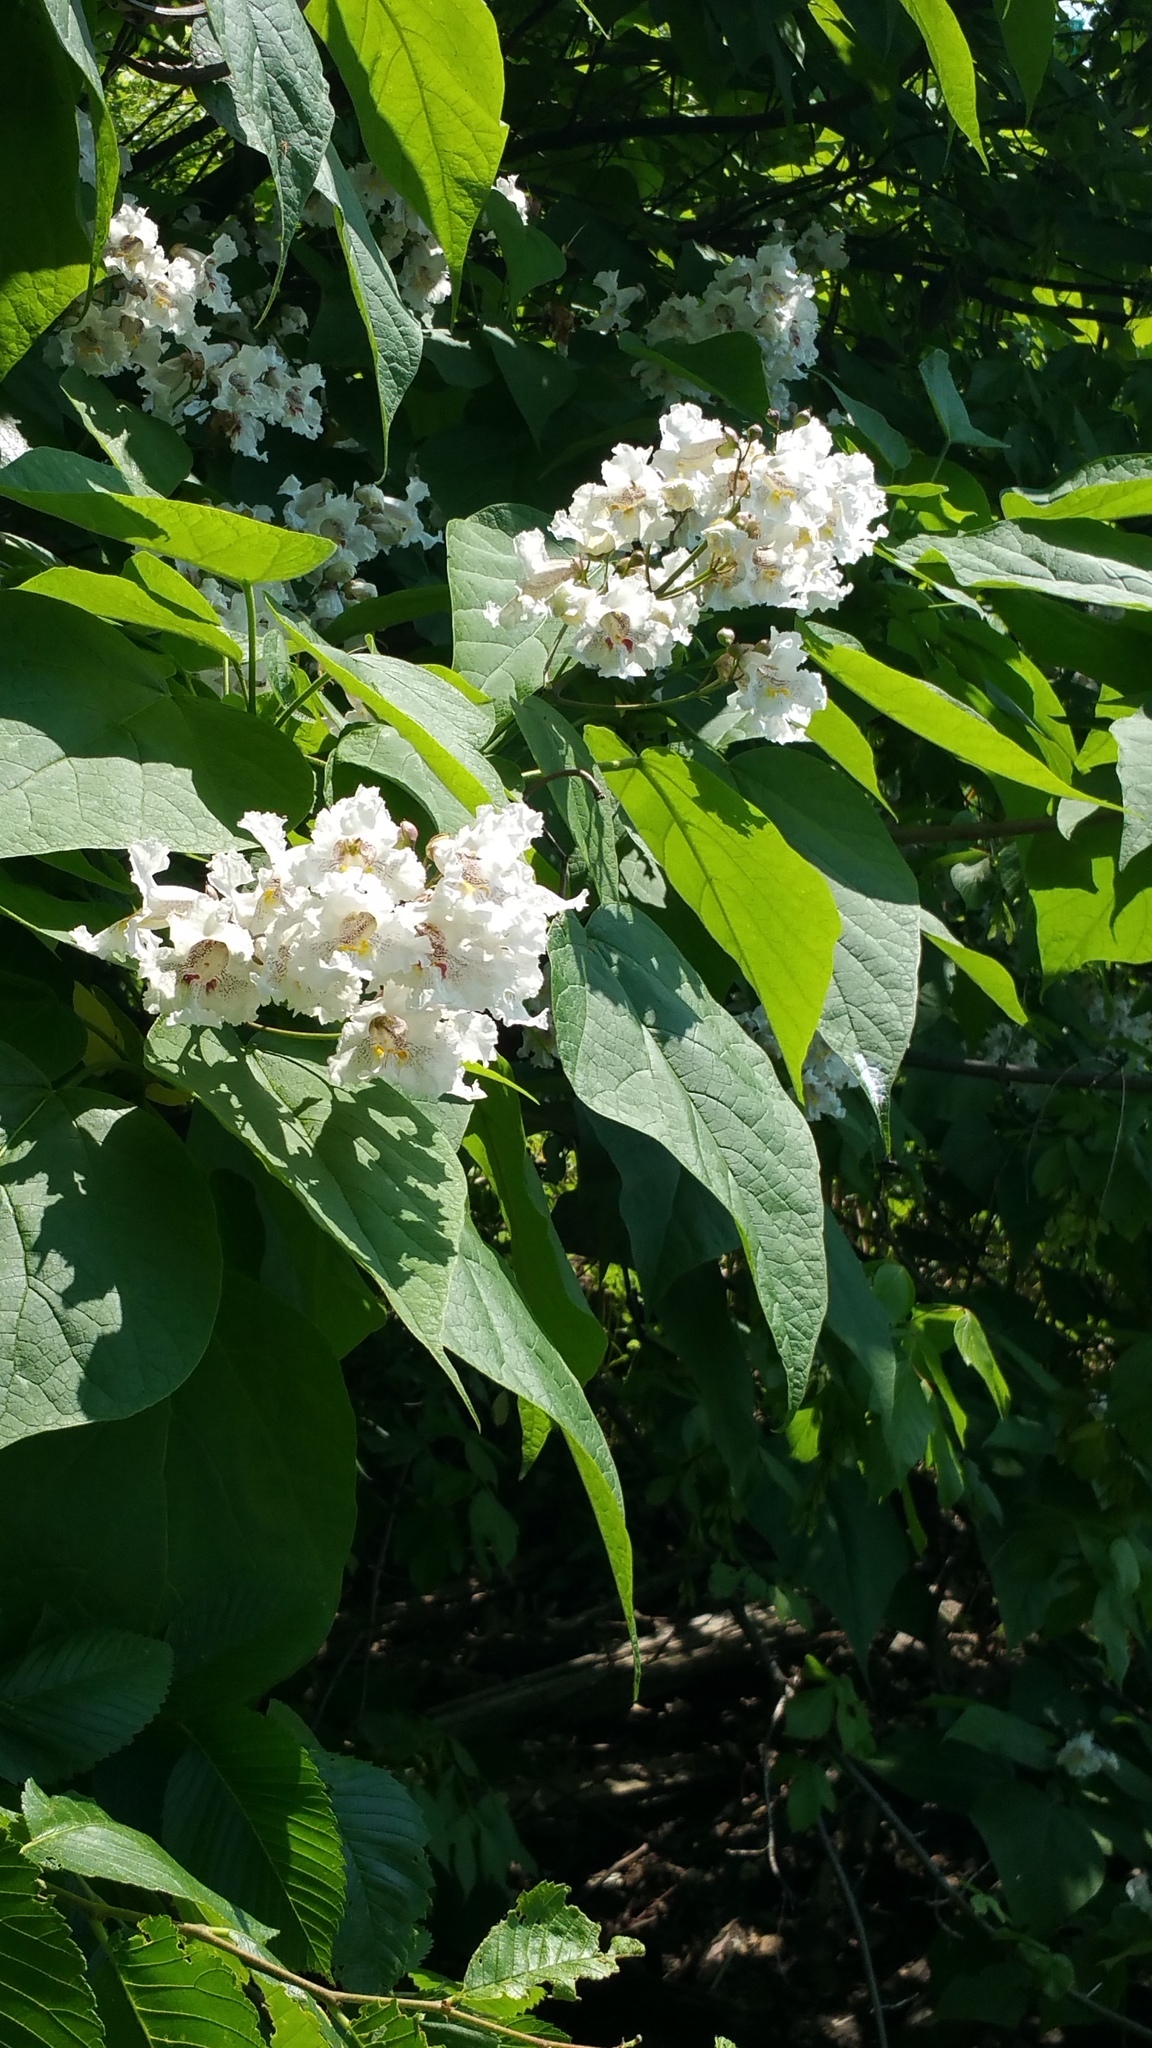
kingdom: Plantae
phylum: Tracheophyta
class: Magnoliopsida
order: Lamiales
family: Bignoniaceae
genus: Catalpa
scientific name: Catalpa speciosa
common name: Northern catalpa
